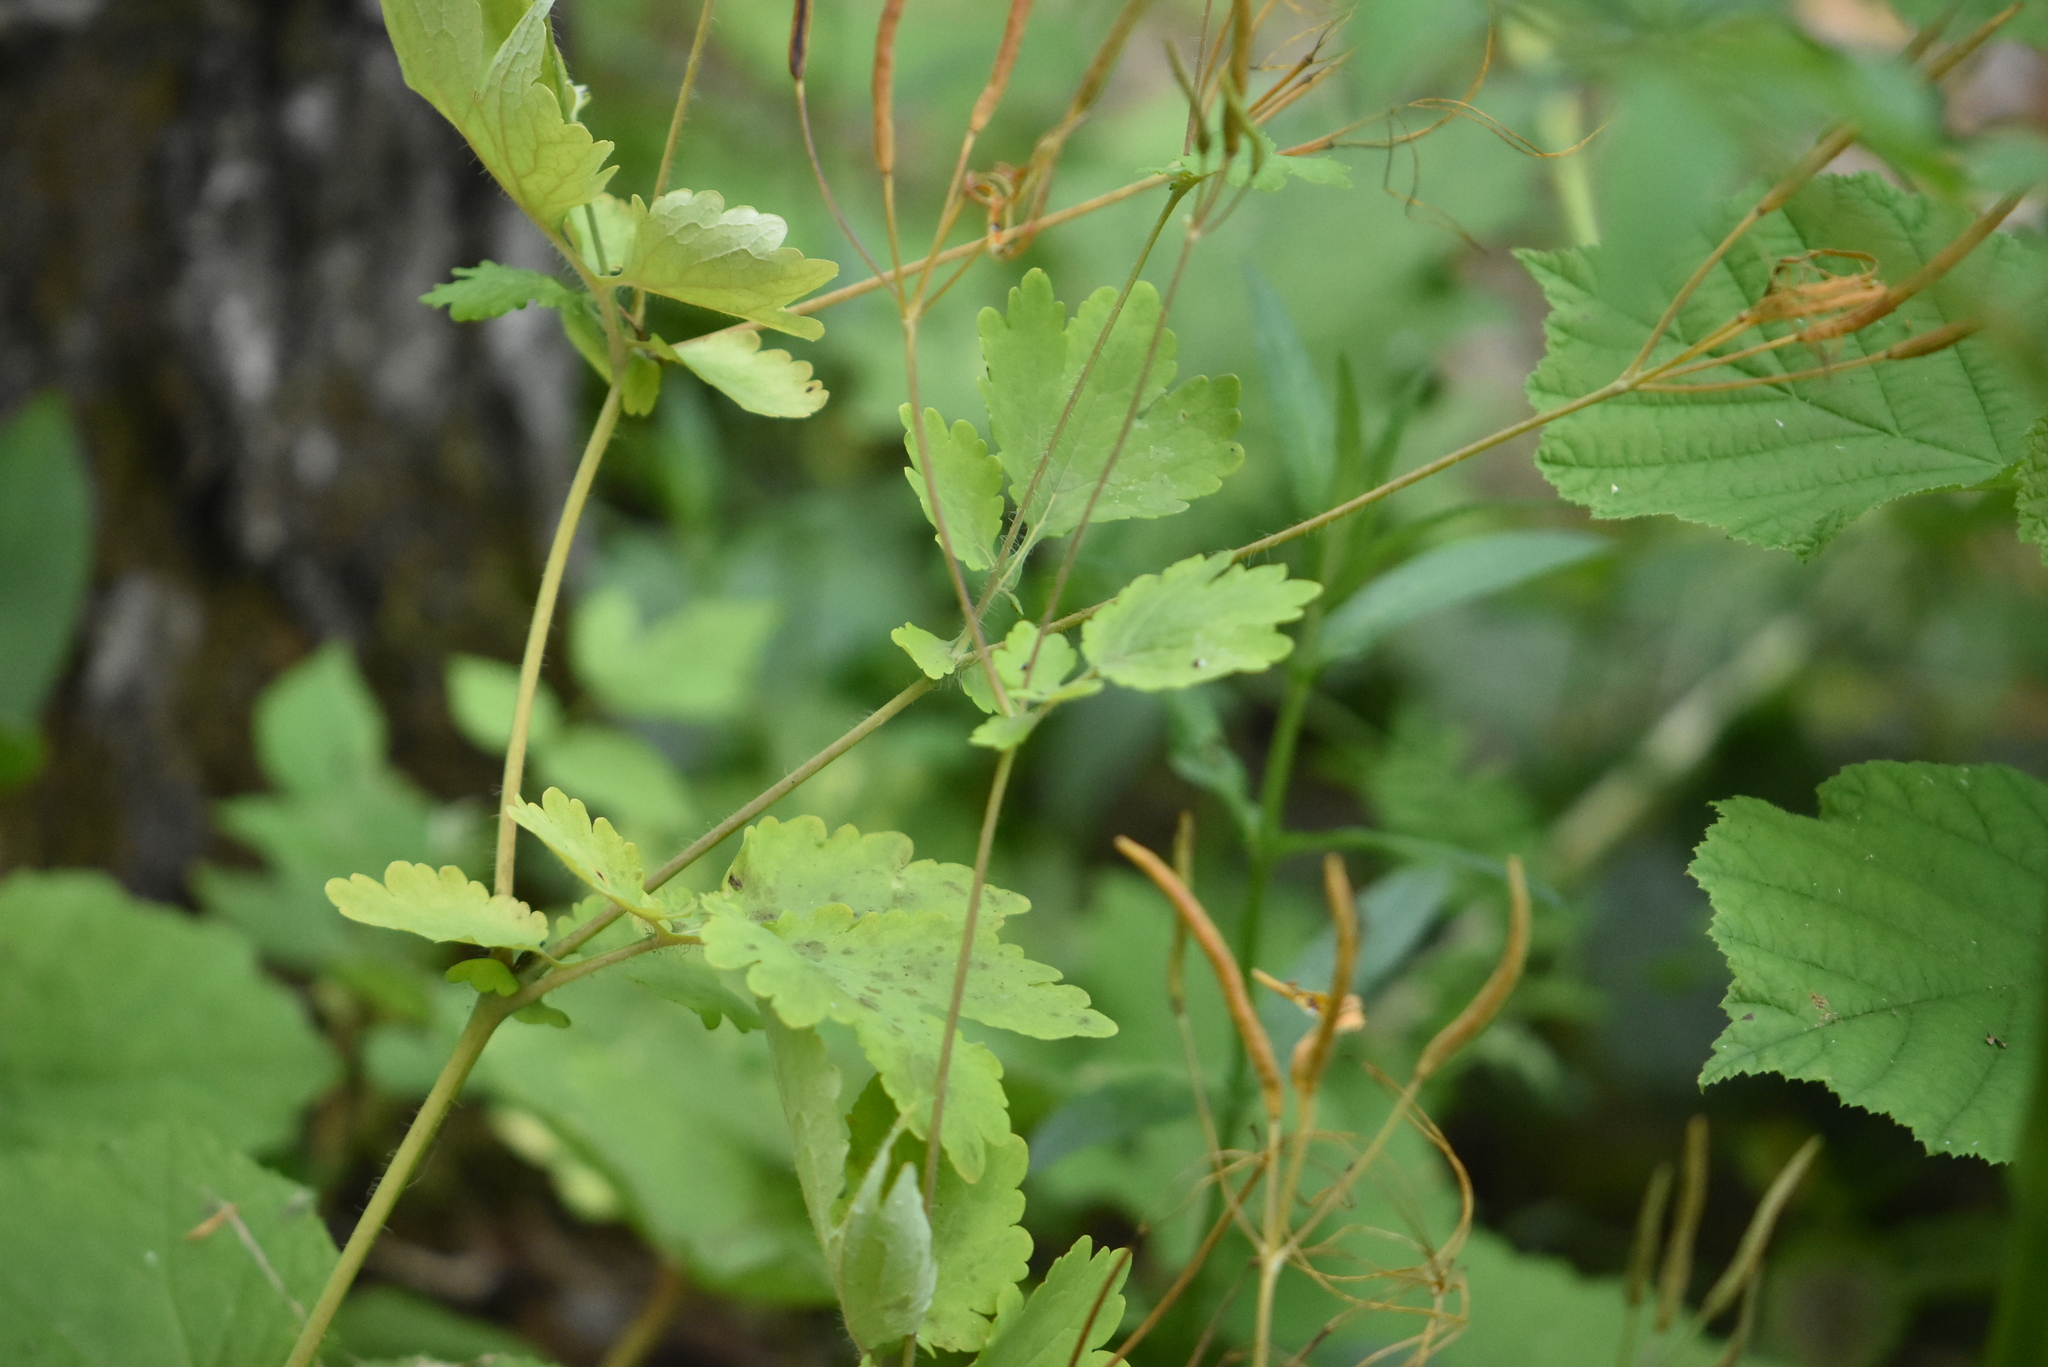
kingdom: Plantae
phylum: Tracheophyta
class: Magnoliopsida
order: Ranunculales
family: Papaveraceae
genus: Chelidonium
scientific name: Chelidonium majus
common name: Greater celandine
